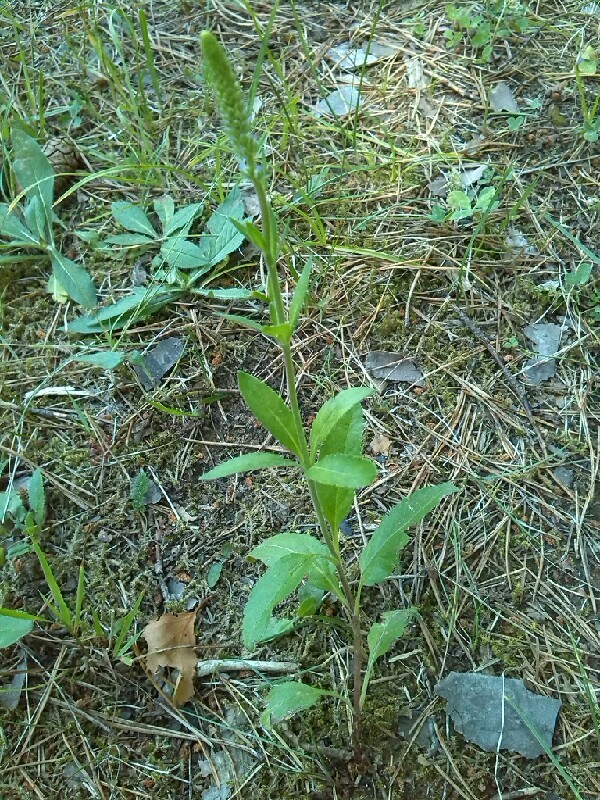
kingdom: Plantae
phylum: Tracheophyta
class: Magnoliopsida
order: Lamiales
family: Plantaginaceae
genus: Veronica
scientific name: Veronica spicata
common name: Spiked speedwell
